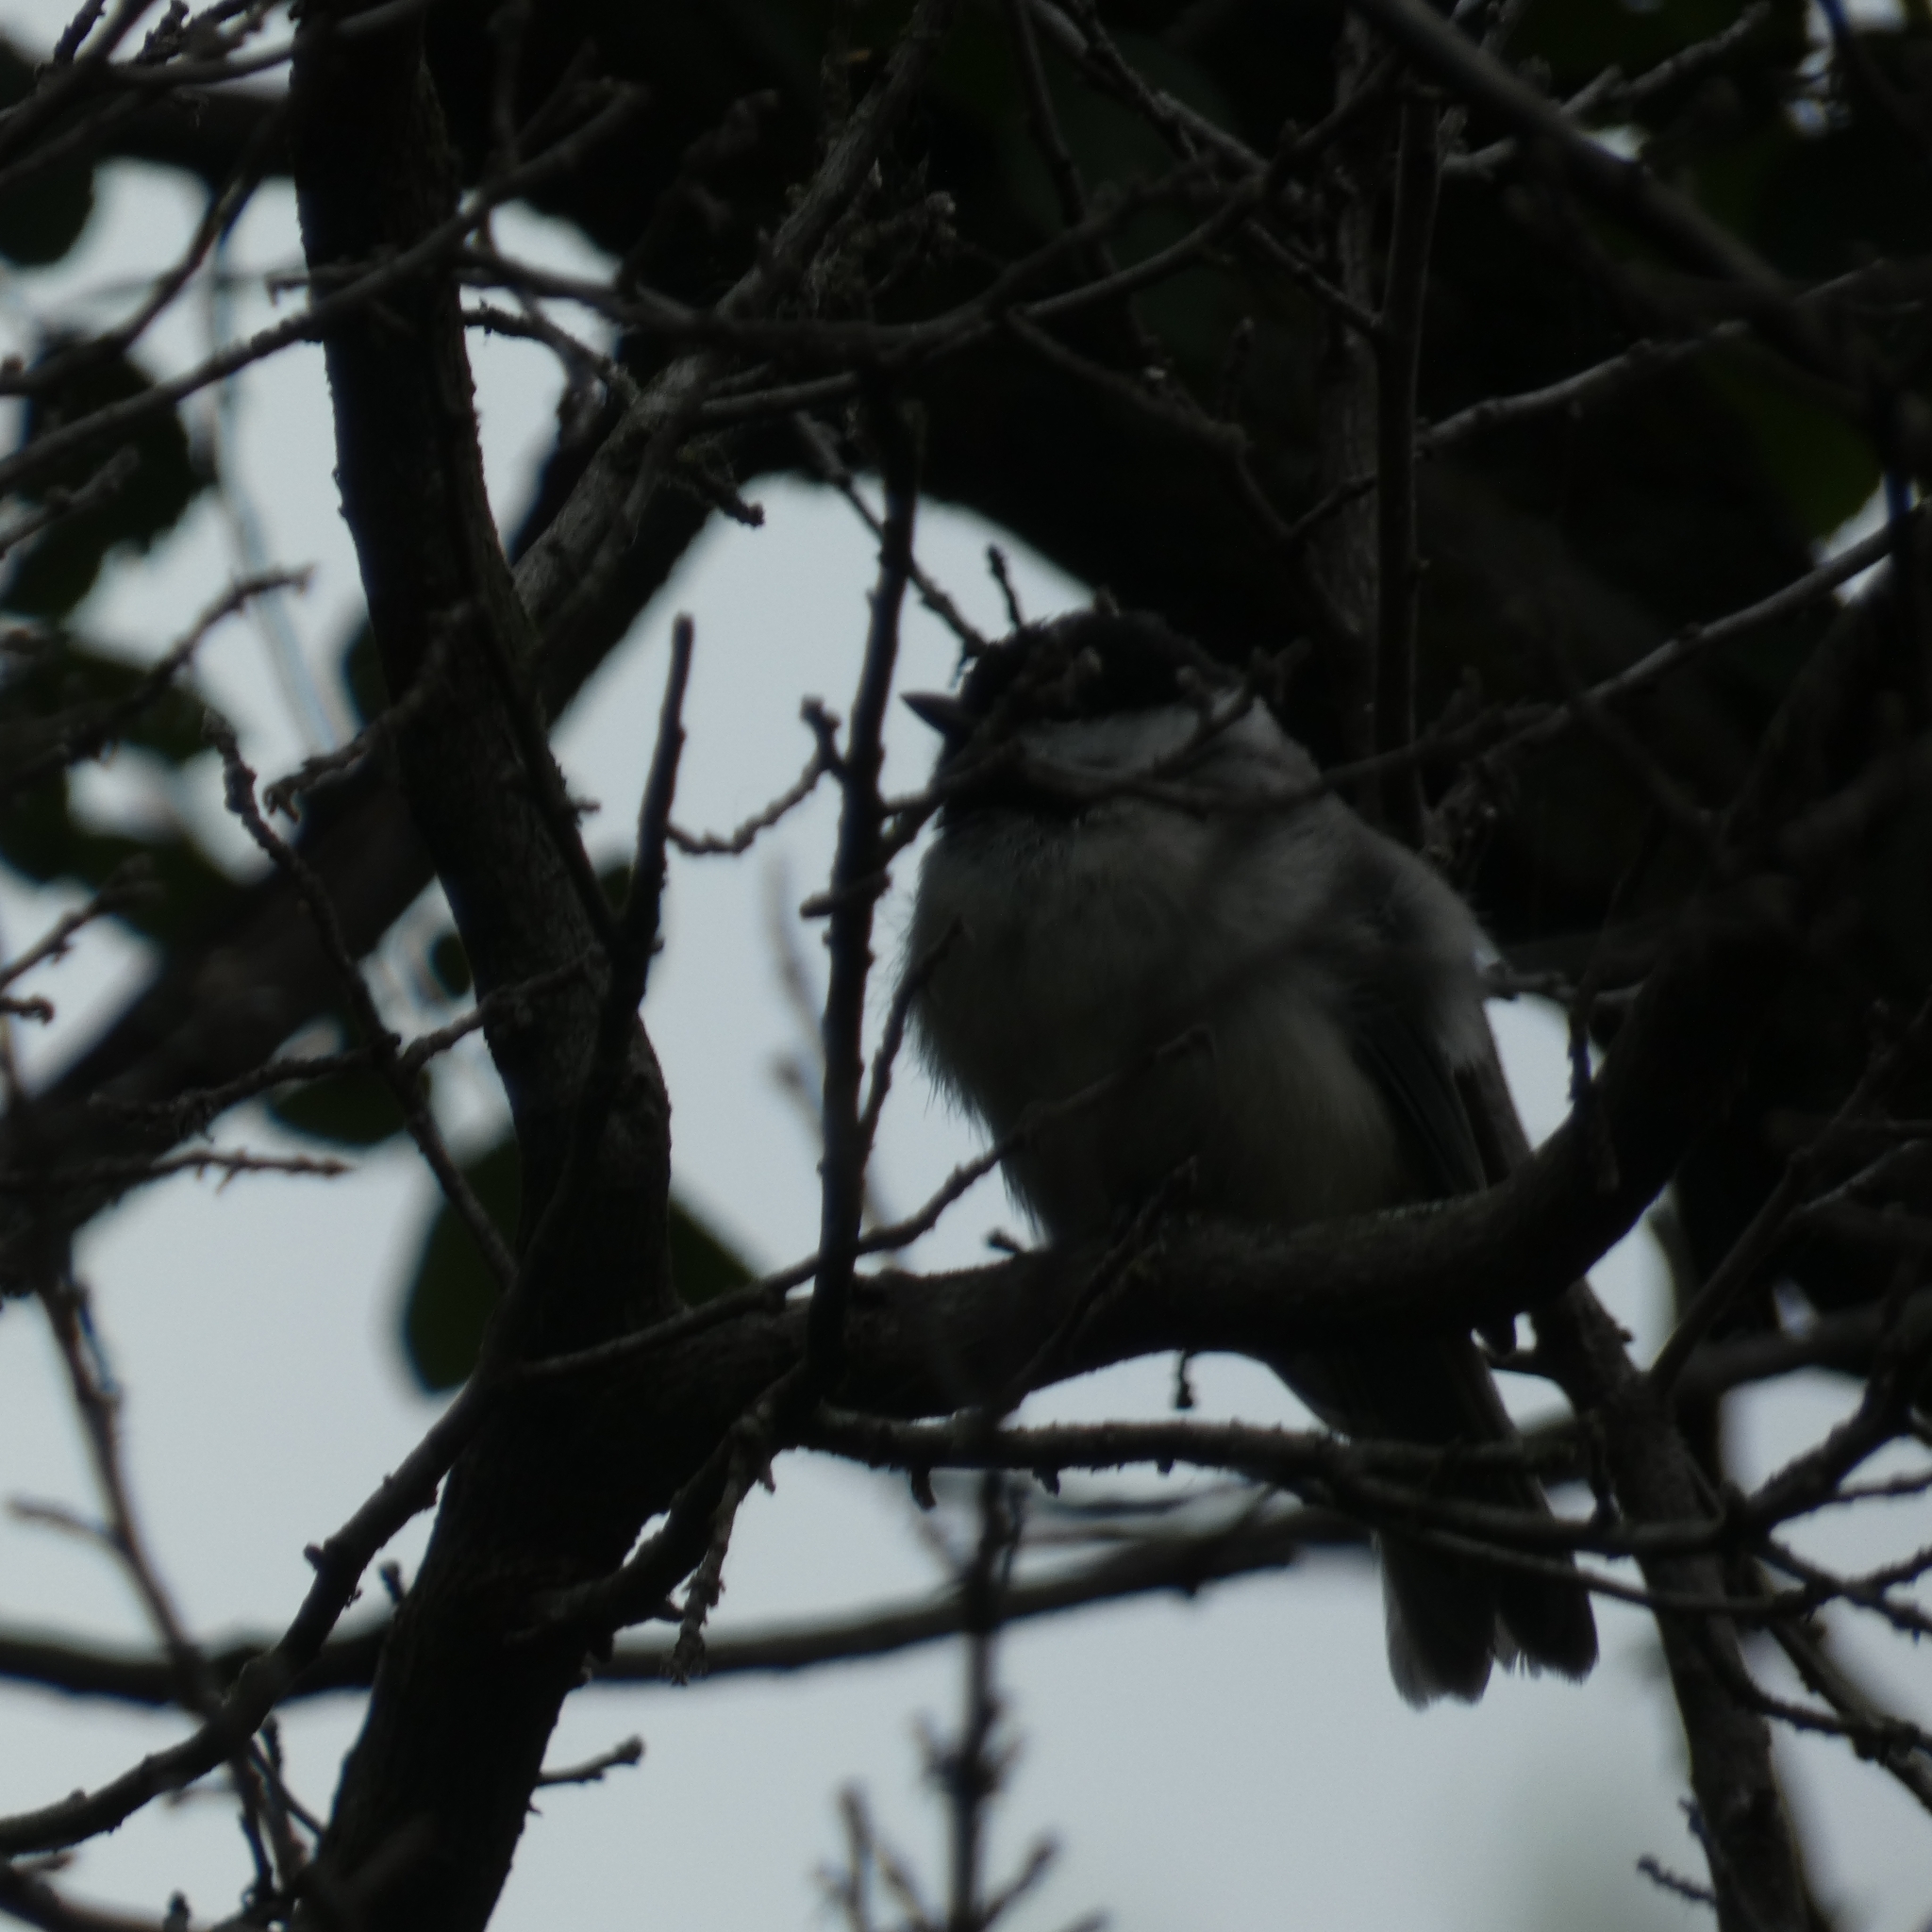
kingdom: Animalia
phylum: Chordata
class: Aves
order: Passeriformes
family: Paridae
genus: Poecile
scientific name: Poecile carolinensis
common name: Carolina chickadee
